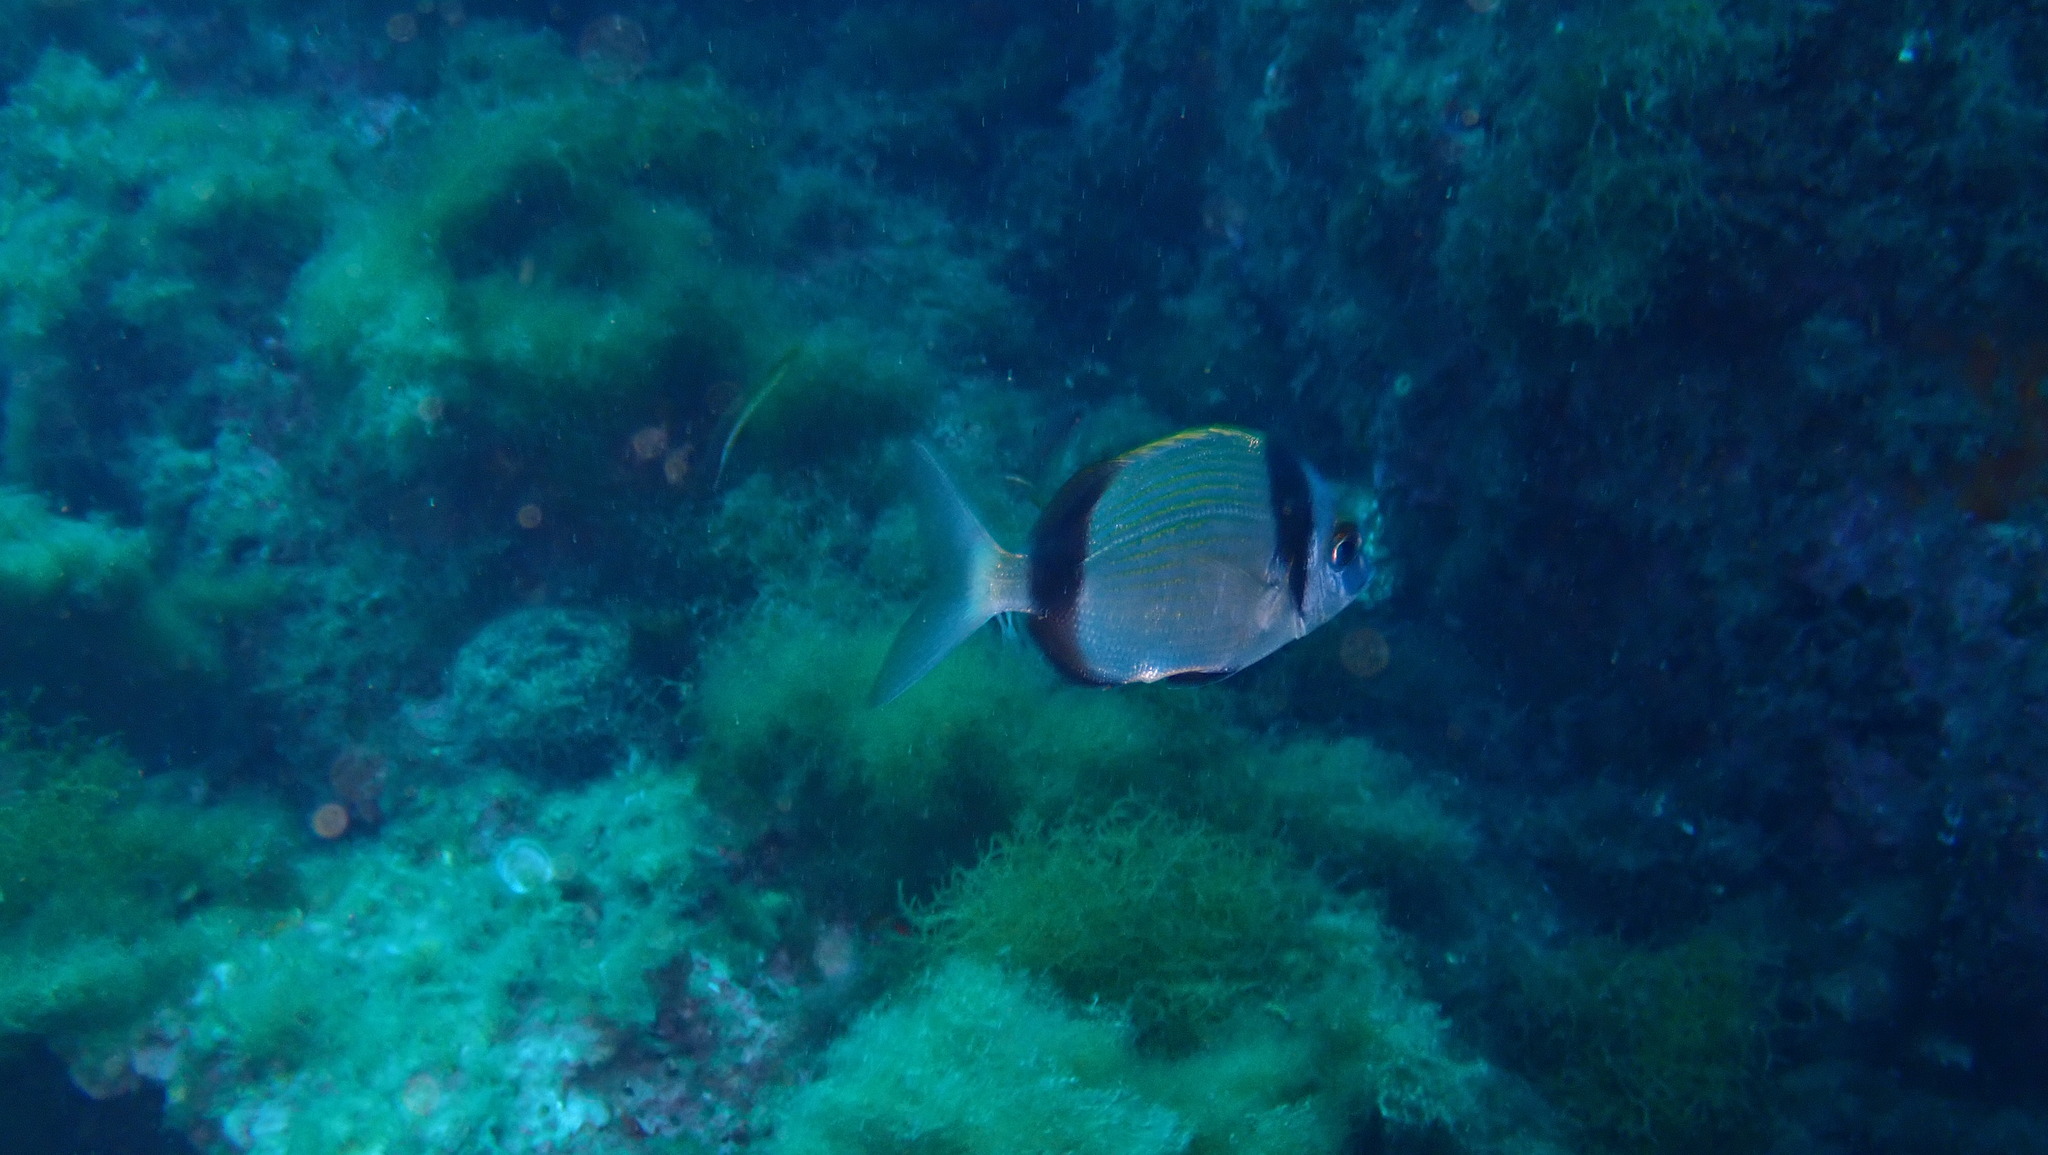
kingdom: Animalia
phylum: Chordata
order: Perciformes
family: Sparidae
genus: Diplodus
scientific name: Diplodus vulgaris
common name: Common two-banded seabream
